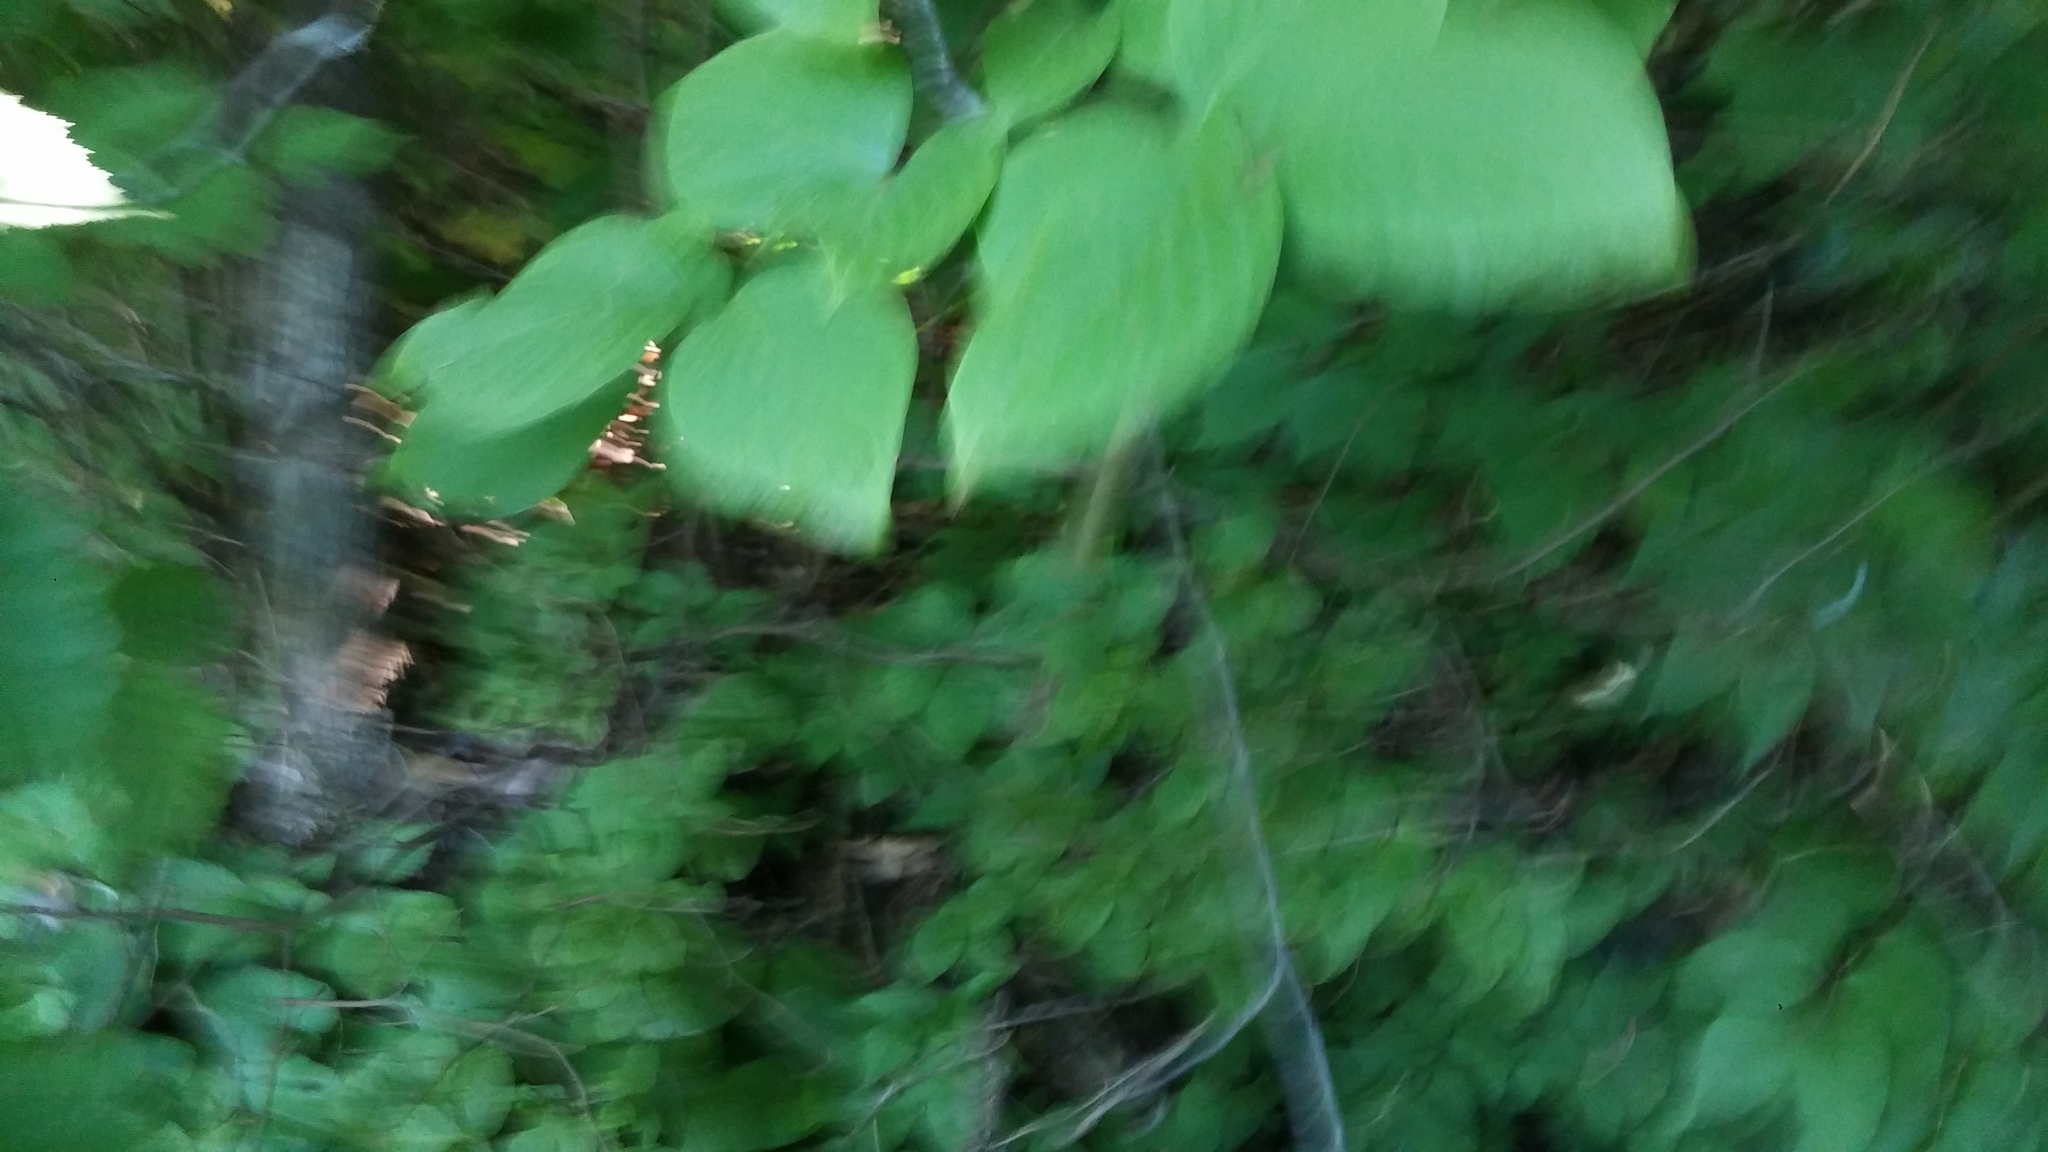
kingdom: Plantae
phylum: Tracheophyta
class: Magnoliopsida
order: Cornales
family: Cornaceae
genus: Cornus
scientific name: Cornus rugosa
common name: Round-leaf dogwood
